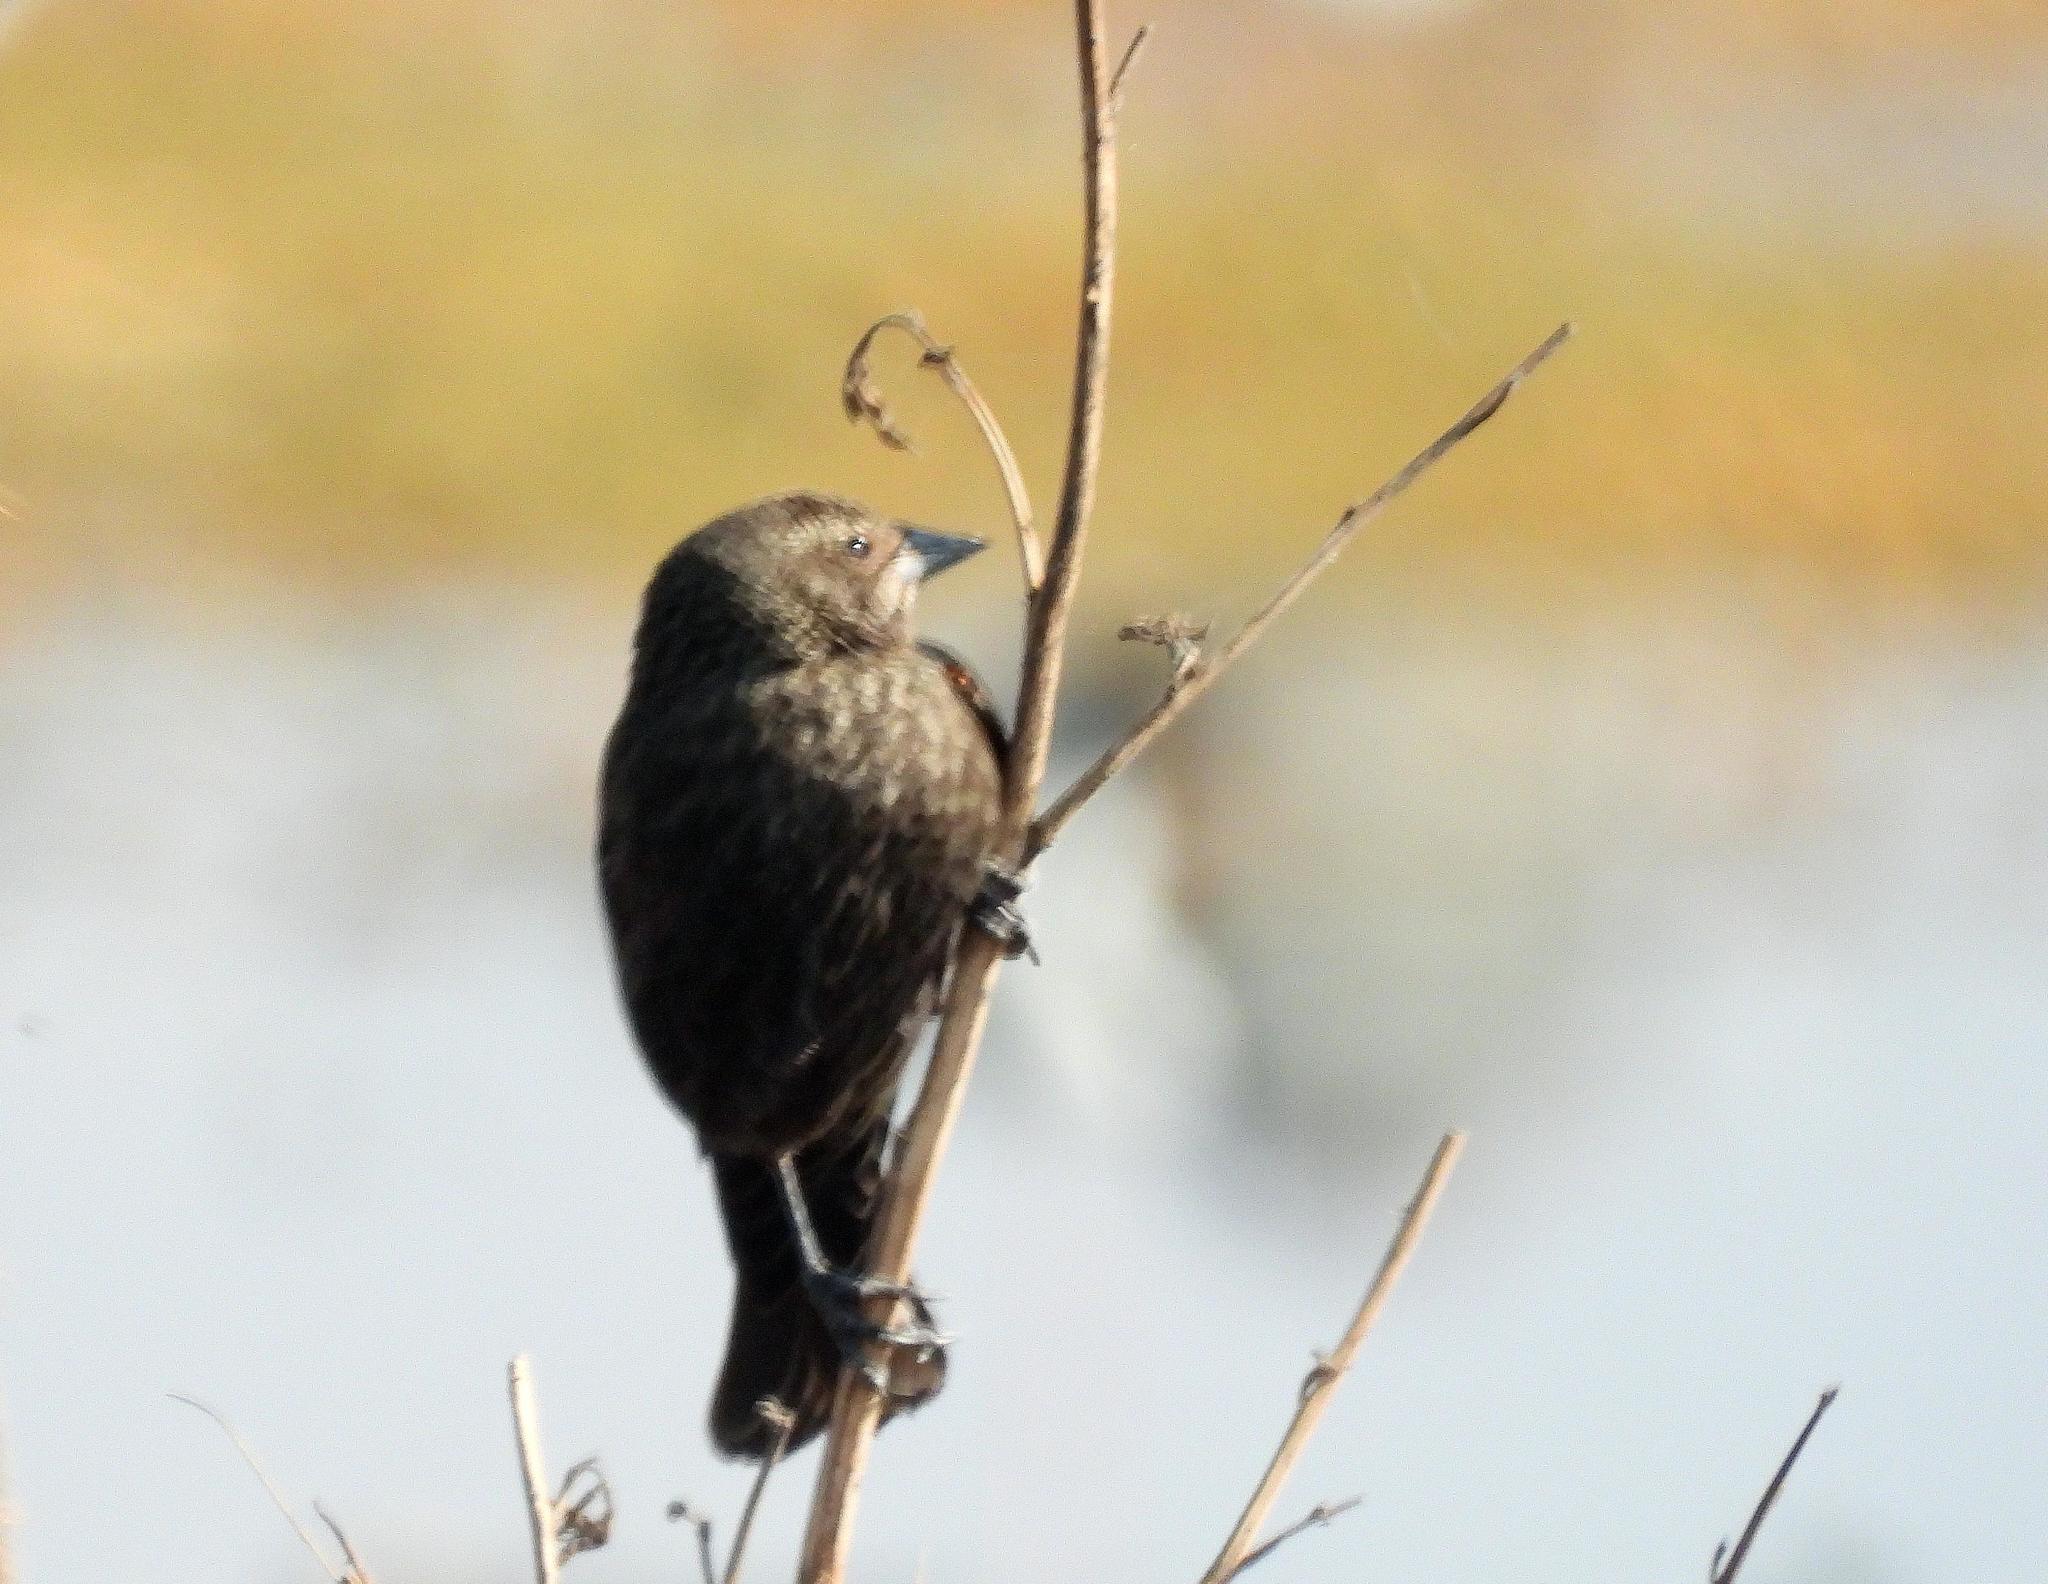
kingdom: Animalia
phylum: Chordata
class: Aves
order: Passeriformes
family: Icteridae
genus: Agelaius
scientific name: Agelaius phoeniceus
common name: Red-winged blackbird
